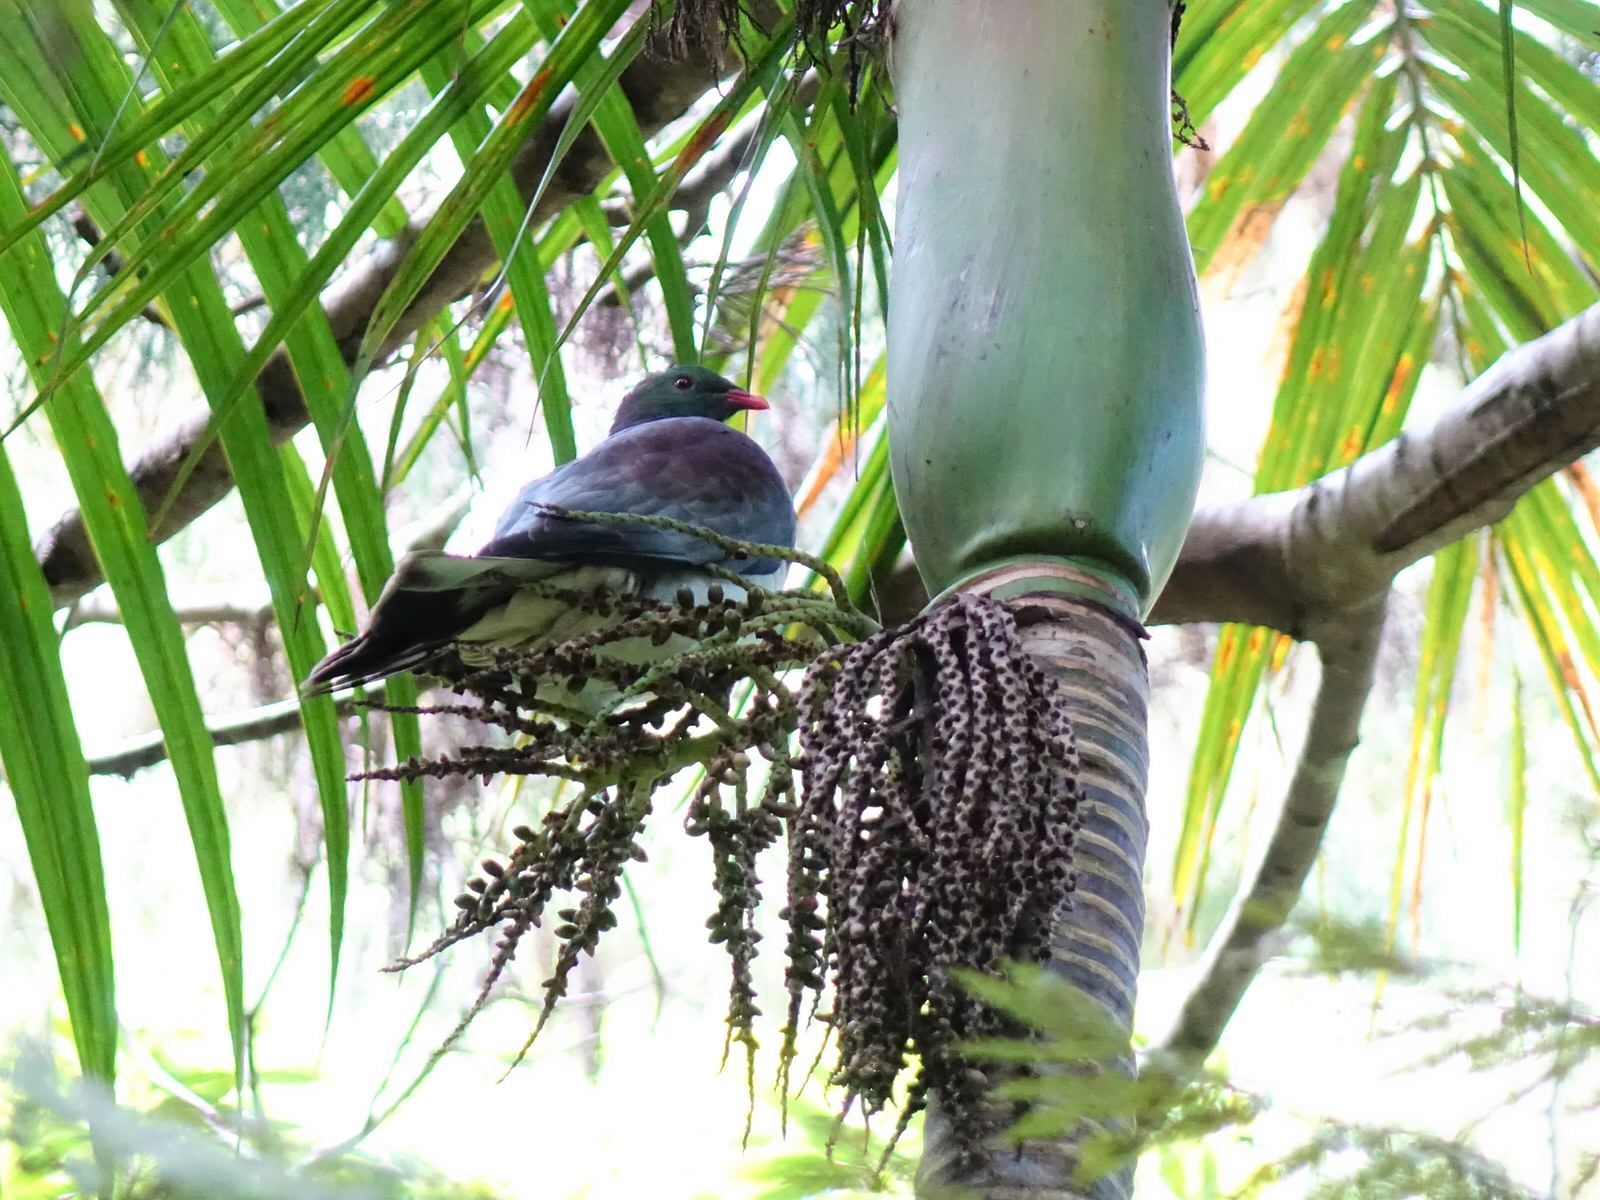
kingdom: Animalia
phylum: Chordata
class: Aves
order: Columbiformes
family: Columbidae
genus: Hemiphaga
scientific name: Hemiphaga novaeseelandiae
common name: New zealand pigeon
